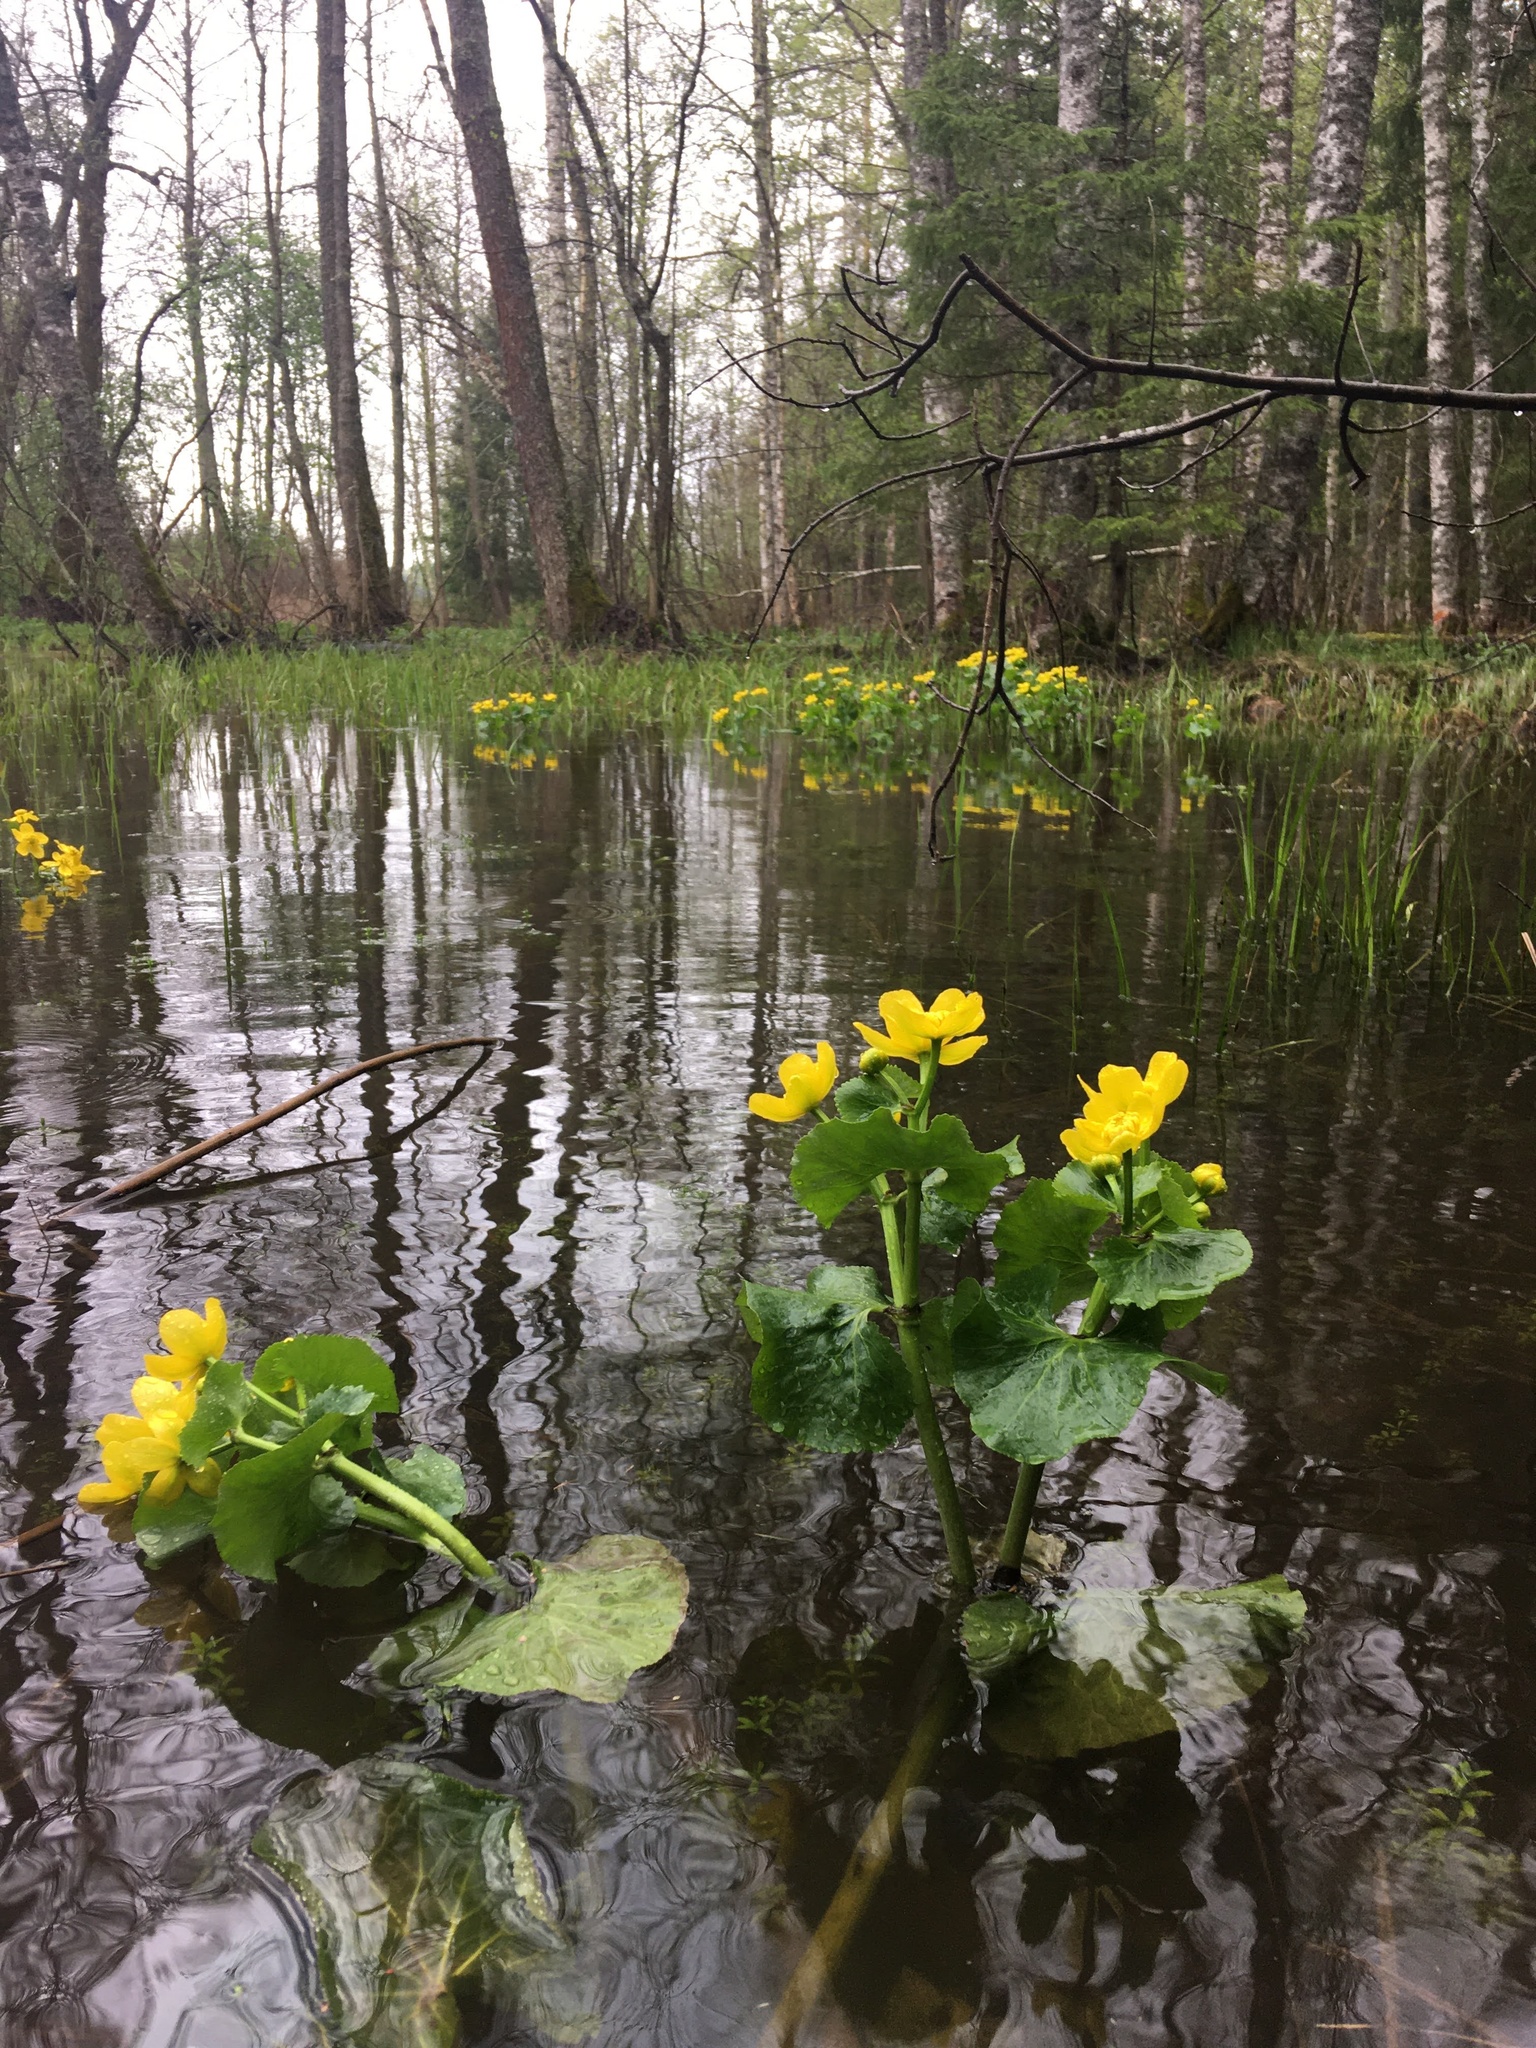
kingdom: Plantae
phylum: Tracheophyta
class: Magnoliopsida
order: Ranunculales
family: Ranunculaceae
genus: Caltha
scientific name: Caltha palustris
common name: Marsh marigold
